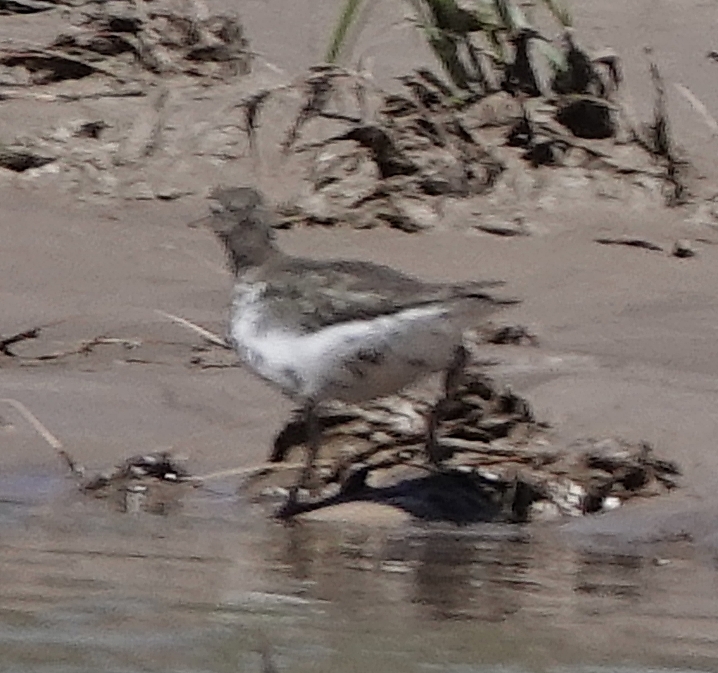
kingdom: Animalia
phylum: Chordata
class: Aves
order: Charadriiformes
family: Scolopacidae
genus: Actitis
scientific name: Actitis macularius
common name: Spotted sandpiper
